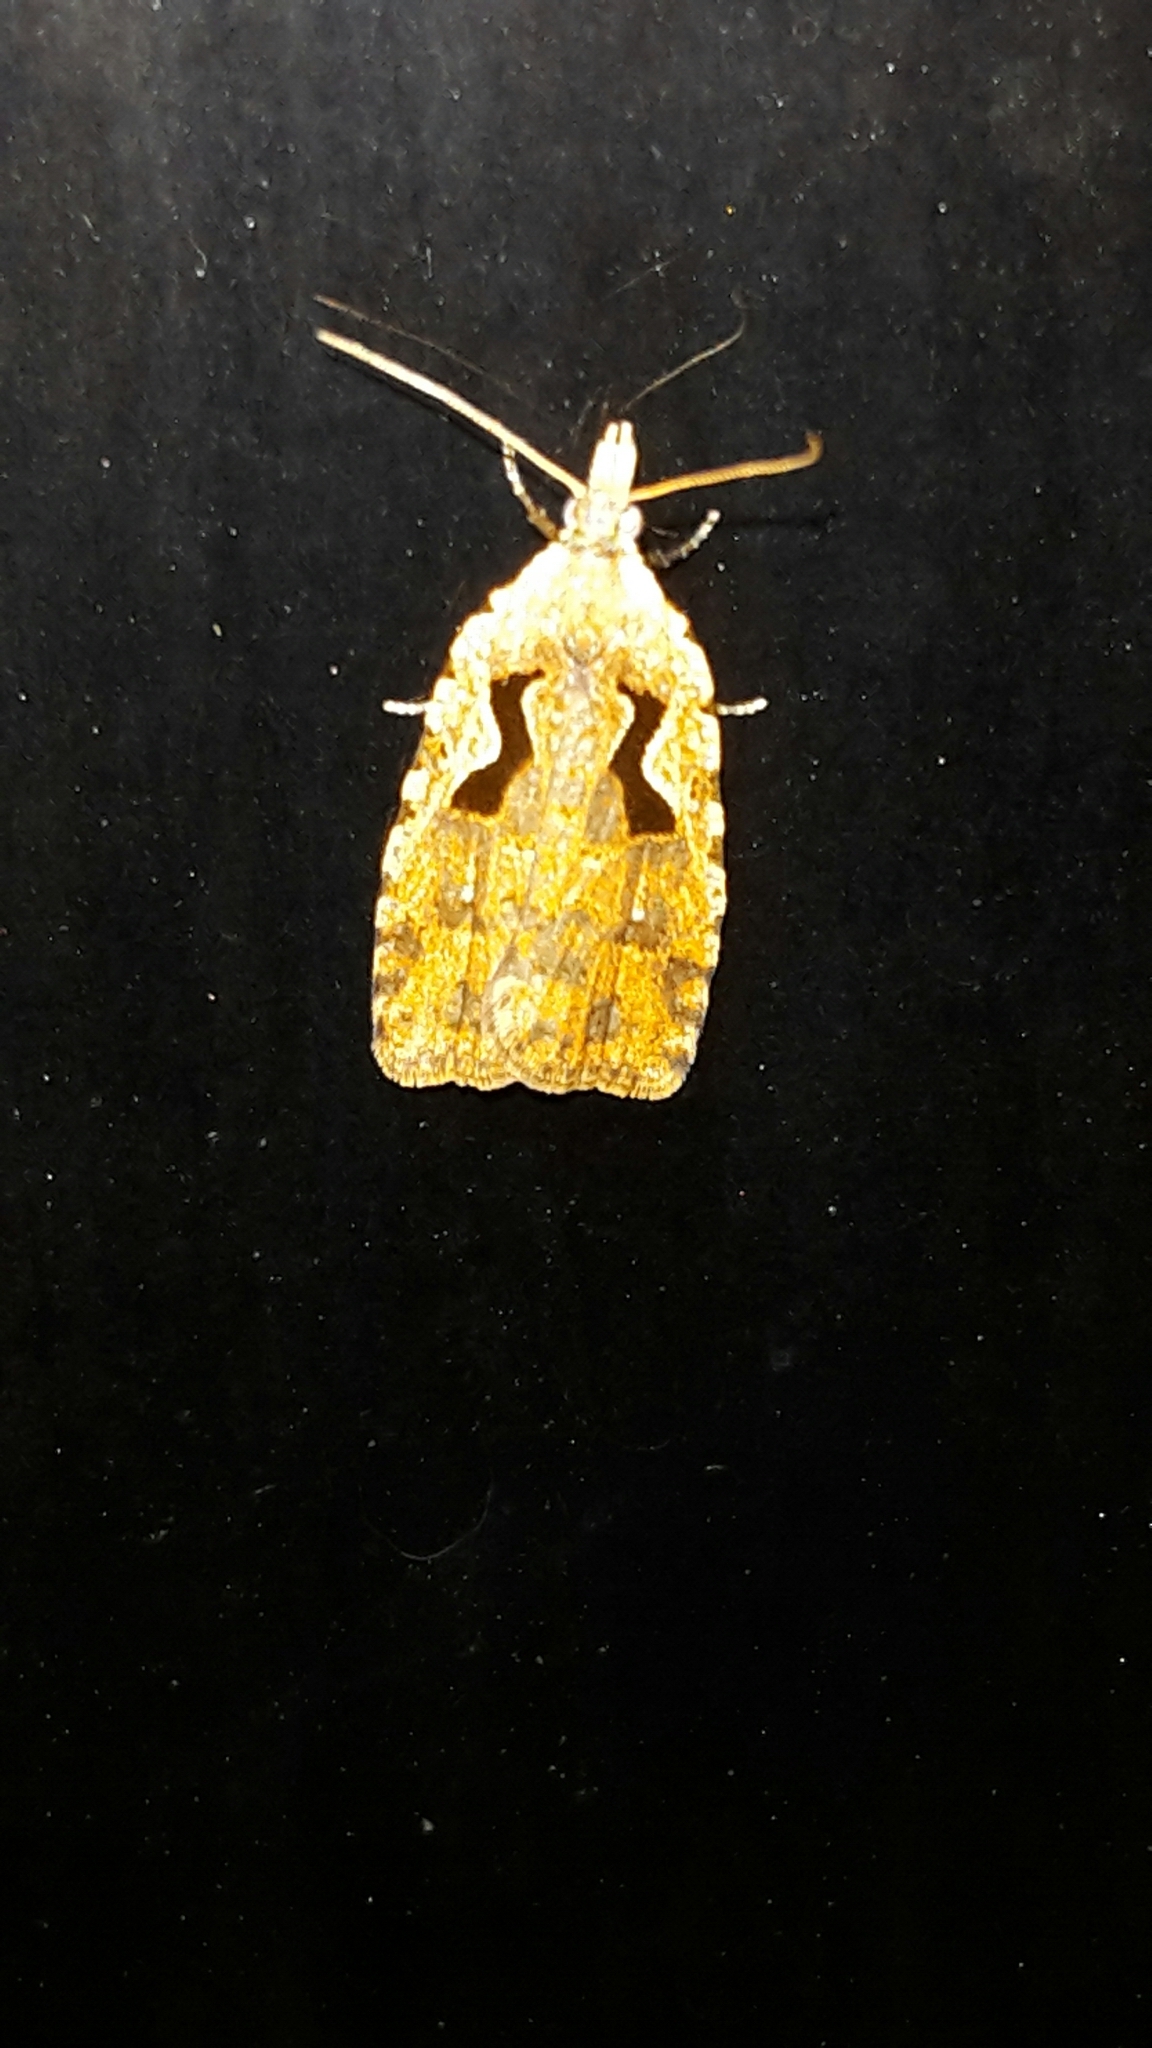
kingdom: Animalia
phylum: Arthropoda
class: Insecta
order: Lepidoptera
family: Tortricidae
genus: Cnephasia
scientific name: Cnephasia jactatana
